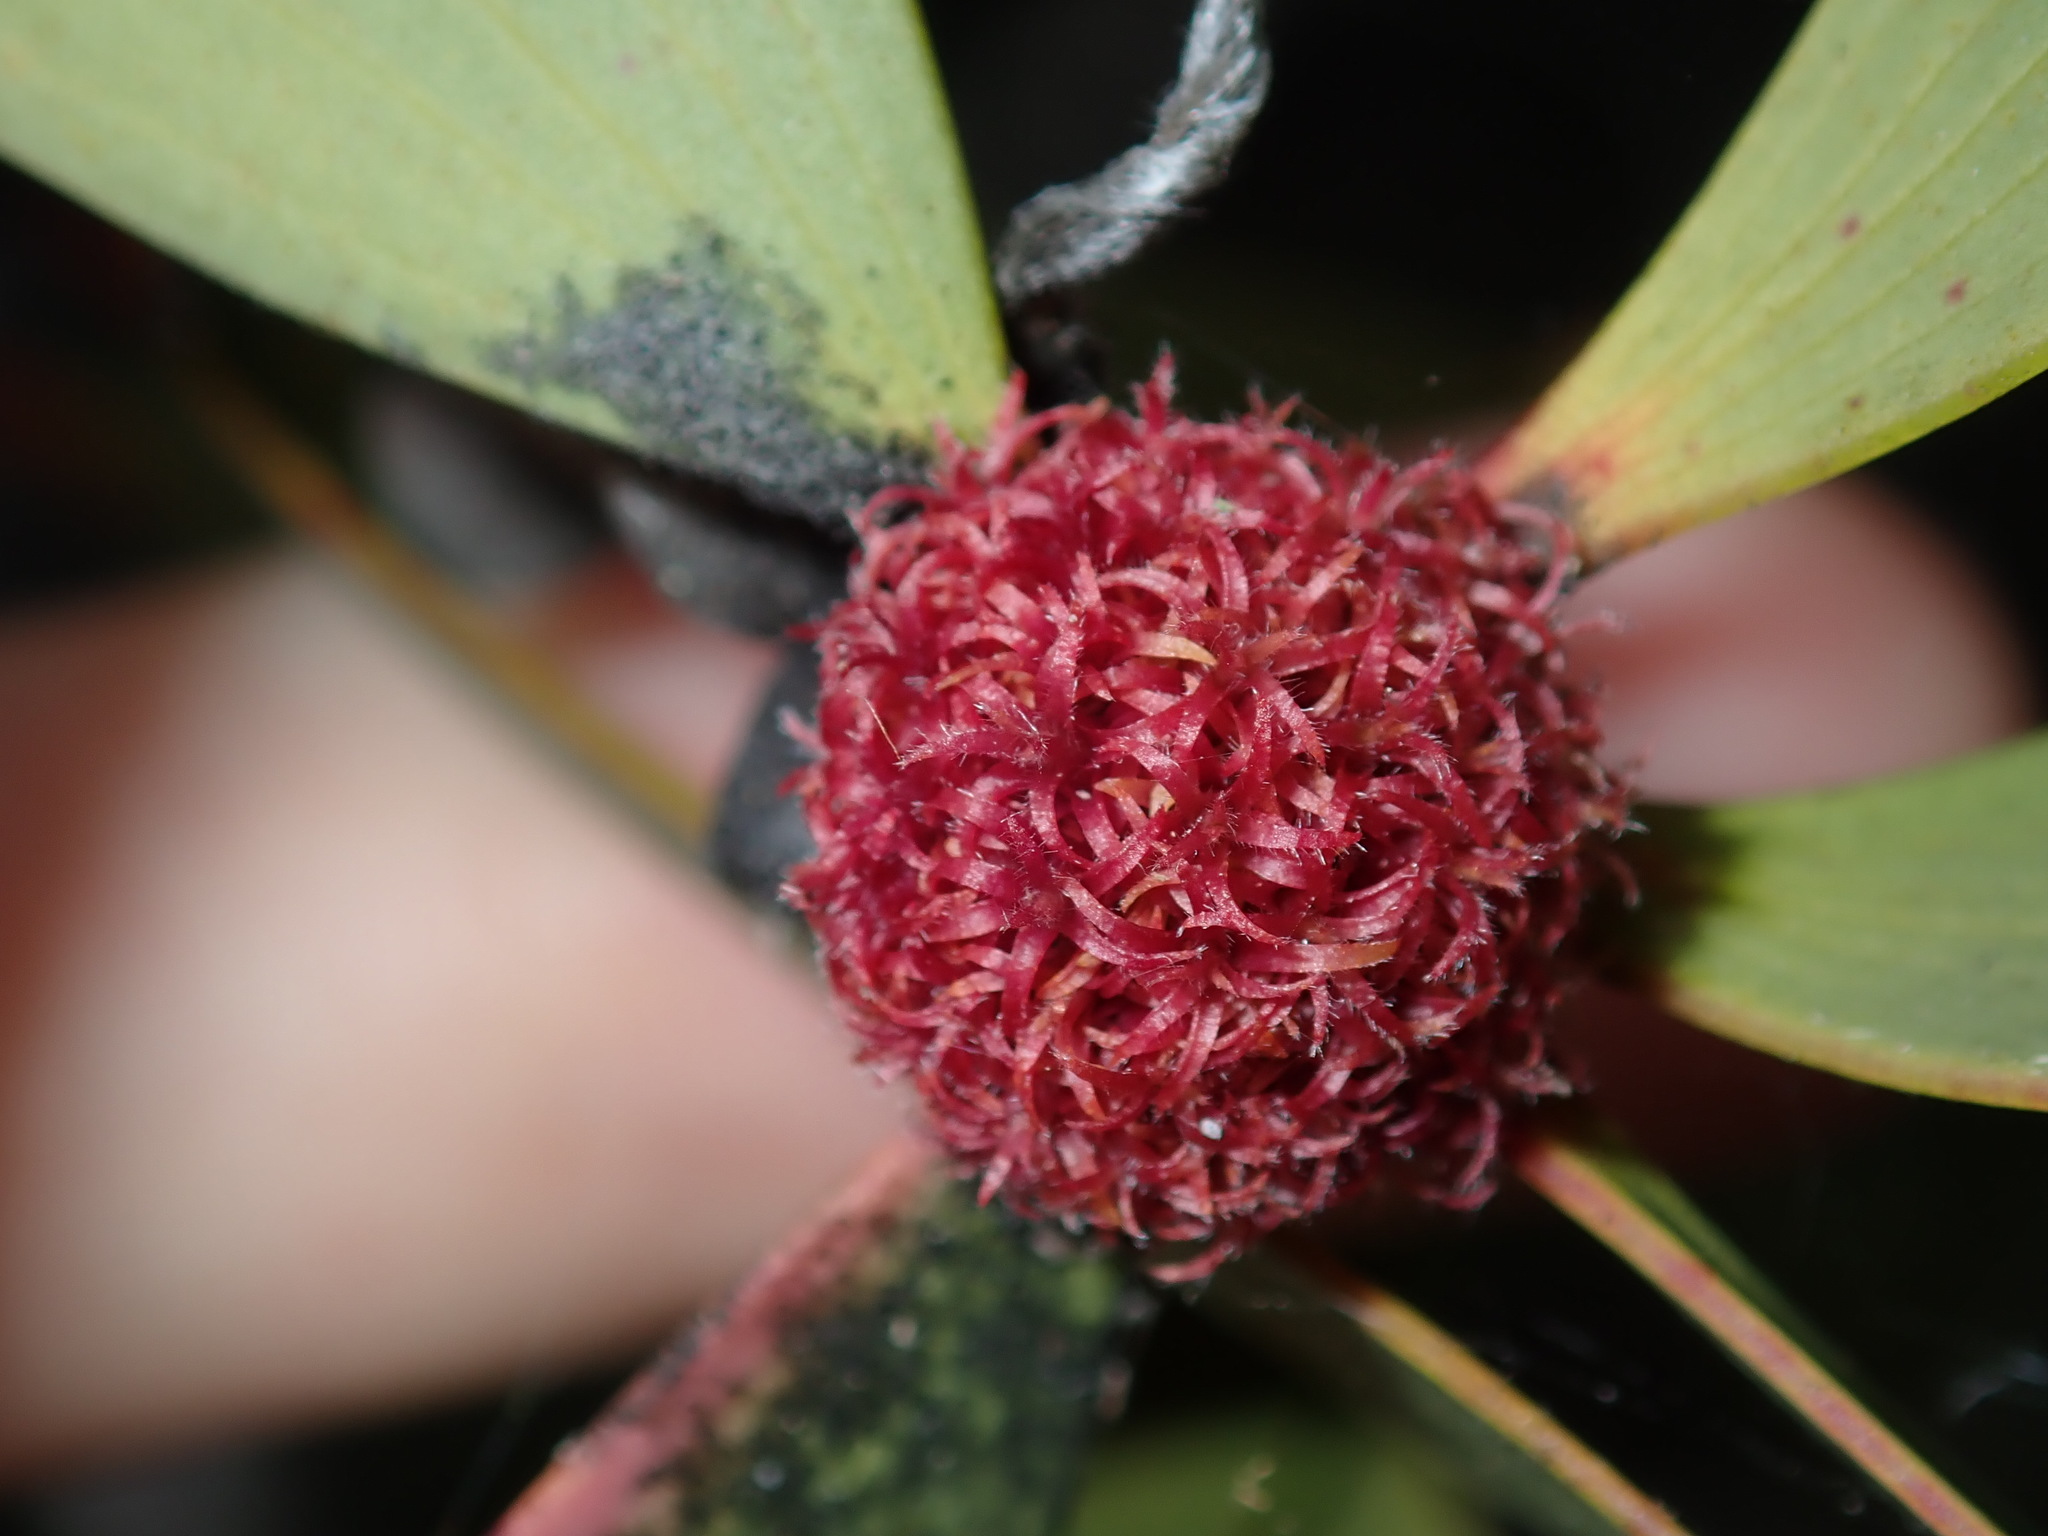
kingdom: Animalia
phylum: Arthropoda
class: Insecta
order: Hemiptera
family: Beesoniidae
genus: Beesonia
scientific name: Beesonia ferrugineus
